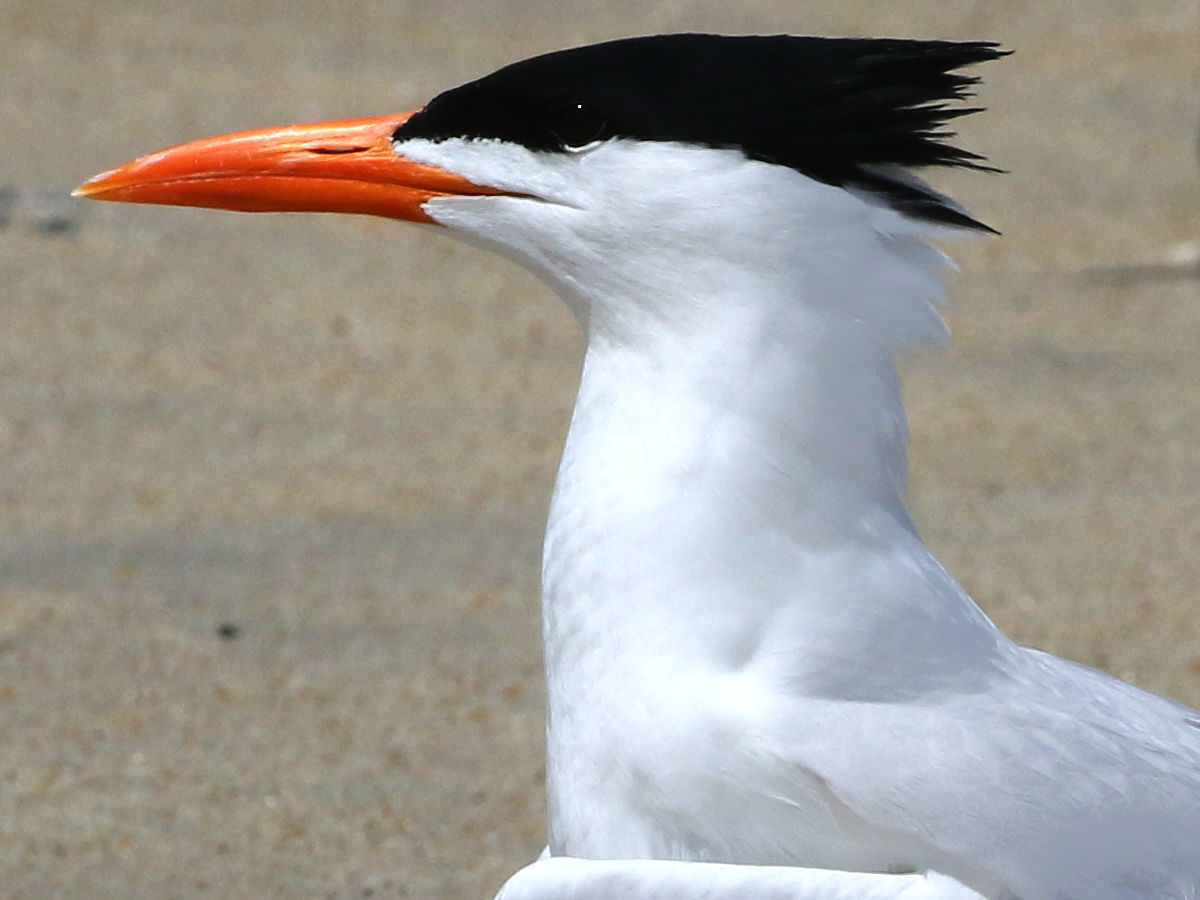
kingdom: Animalia
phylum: Chordata
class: Aves
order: Charadriiformes
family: Laridae
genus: Thalasseus
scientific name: Thalasseus maximus
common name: Royal tern
